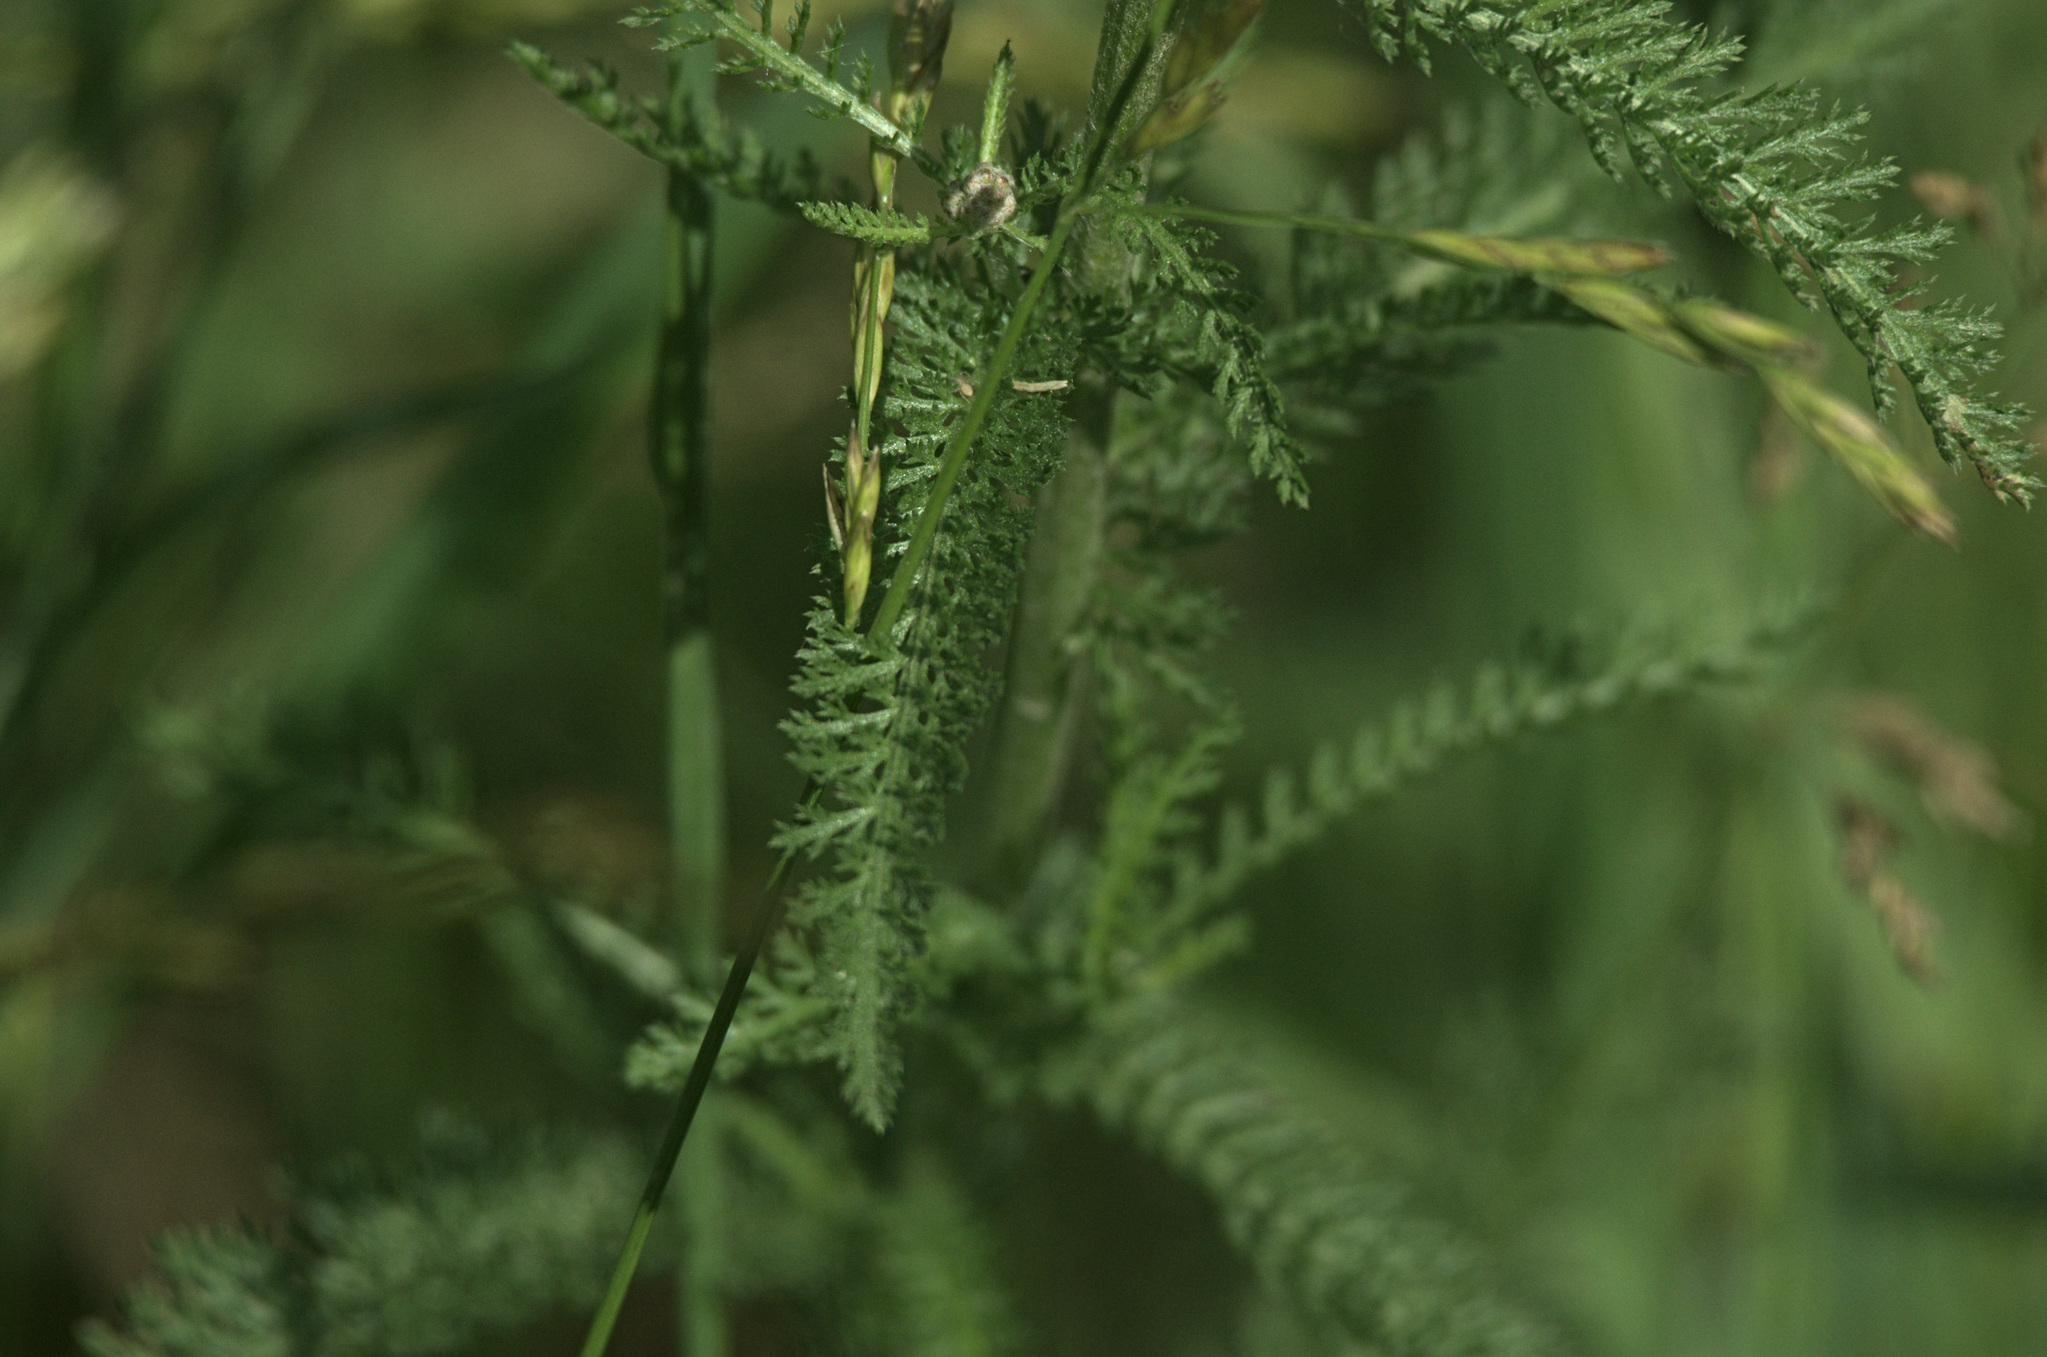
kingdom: Plantae
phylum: Tracheophyta
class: Magnoliopsida
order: Asterales
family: Asteraceae
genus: Achillea
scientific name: Achillea millefolium
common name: Yarrow
